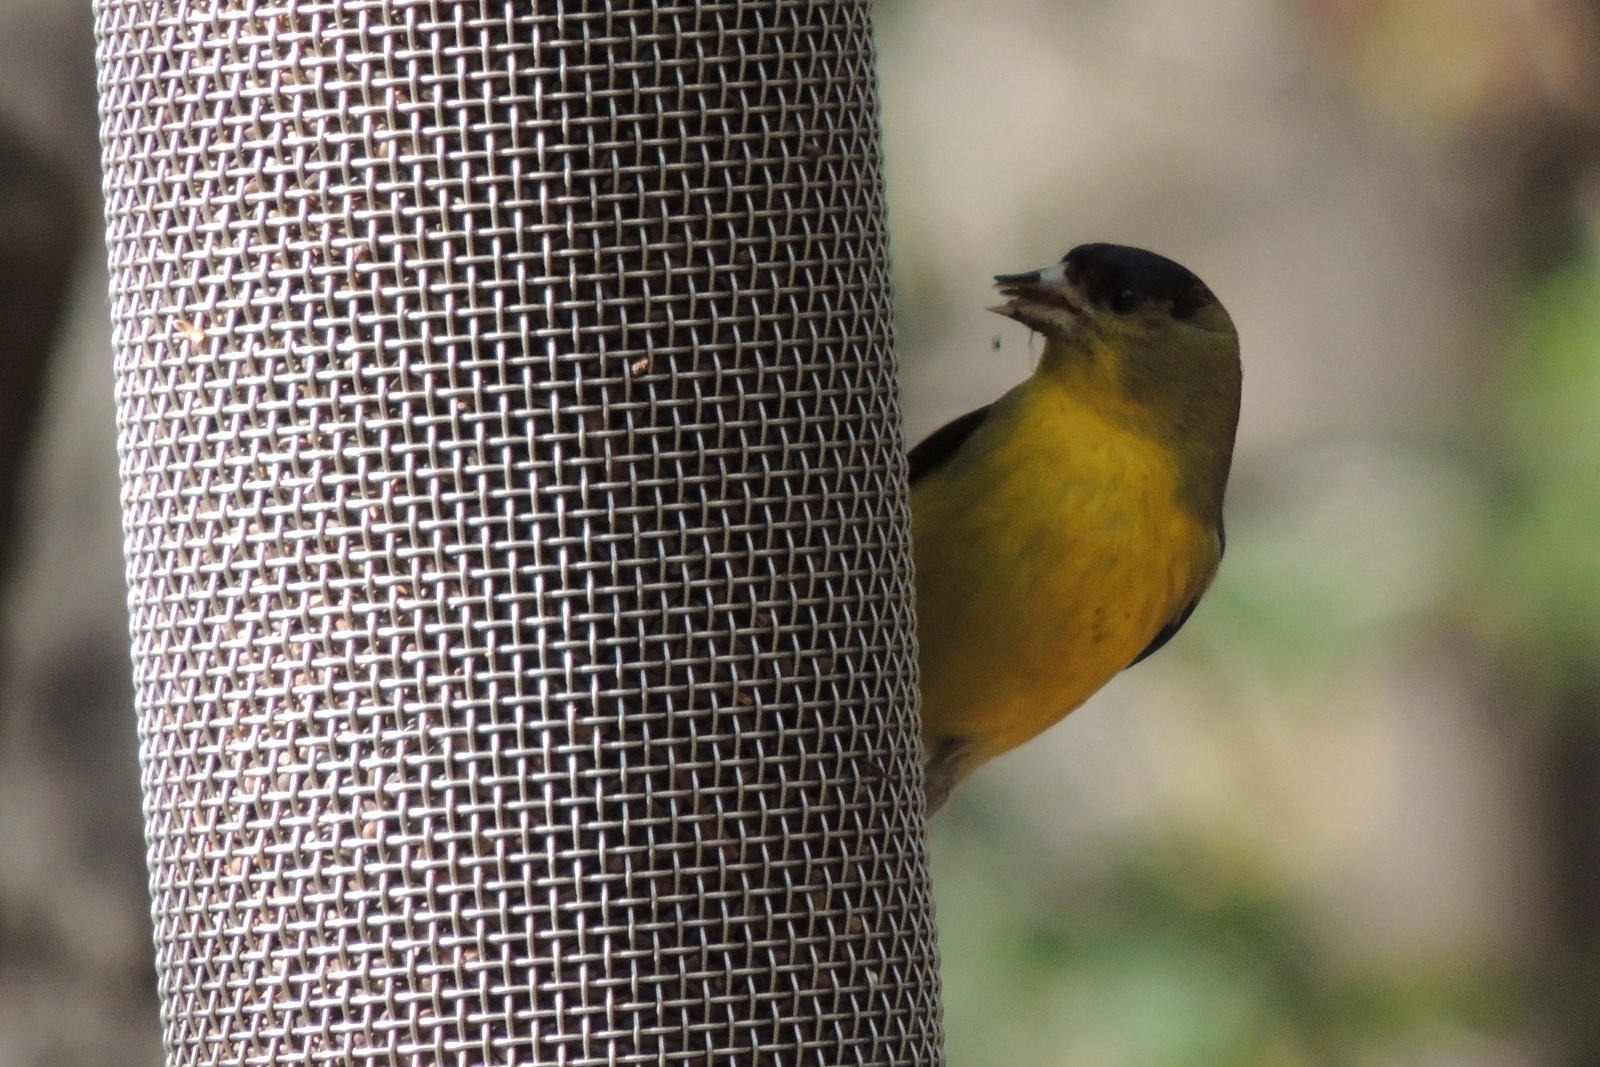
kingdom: Animalia
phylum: Chordata
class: Aves
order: Passeriformes
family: Fringillidae
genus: Spinus
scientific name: Spinus psaltria
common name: Lesser goldfinch
